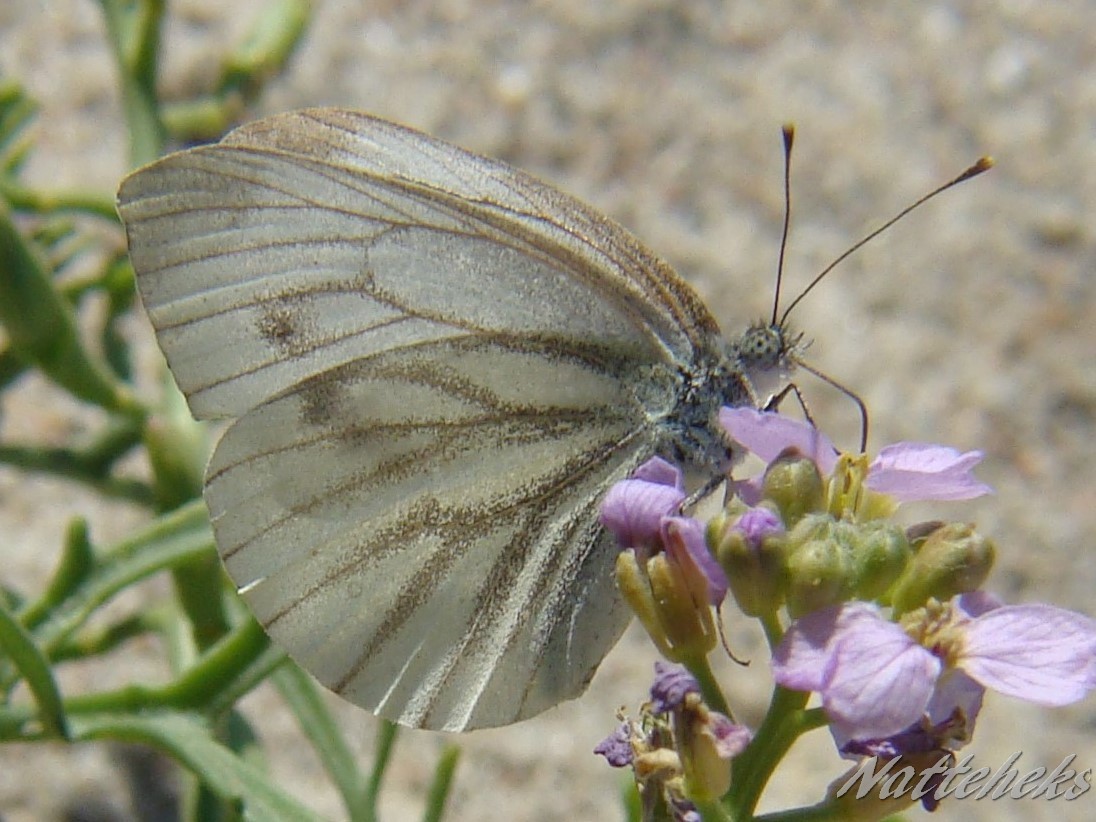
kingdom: Animalia
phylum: Arthropoda
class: Insecta
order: Lepidoptera
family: Pieridae
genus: Pieris
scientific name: Pieris napi
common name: Green-veined white
